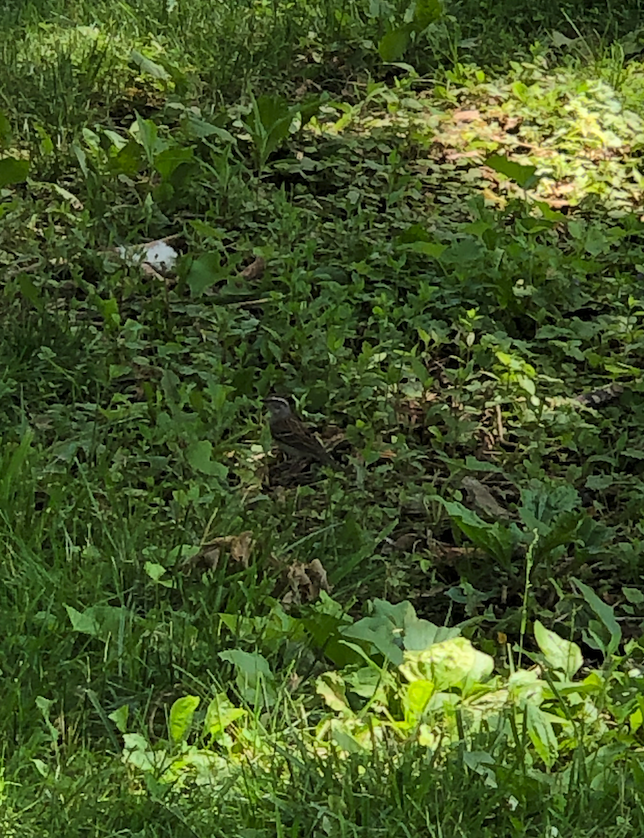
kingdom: Animalia
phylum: Chordata
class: Aves
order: Passeriformes
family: Passerellidae
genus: Spizella
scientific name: Spizella passerina
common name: Chipping sparrow
